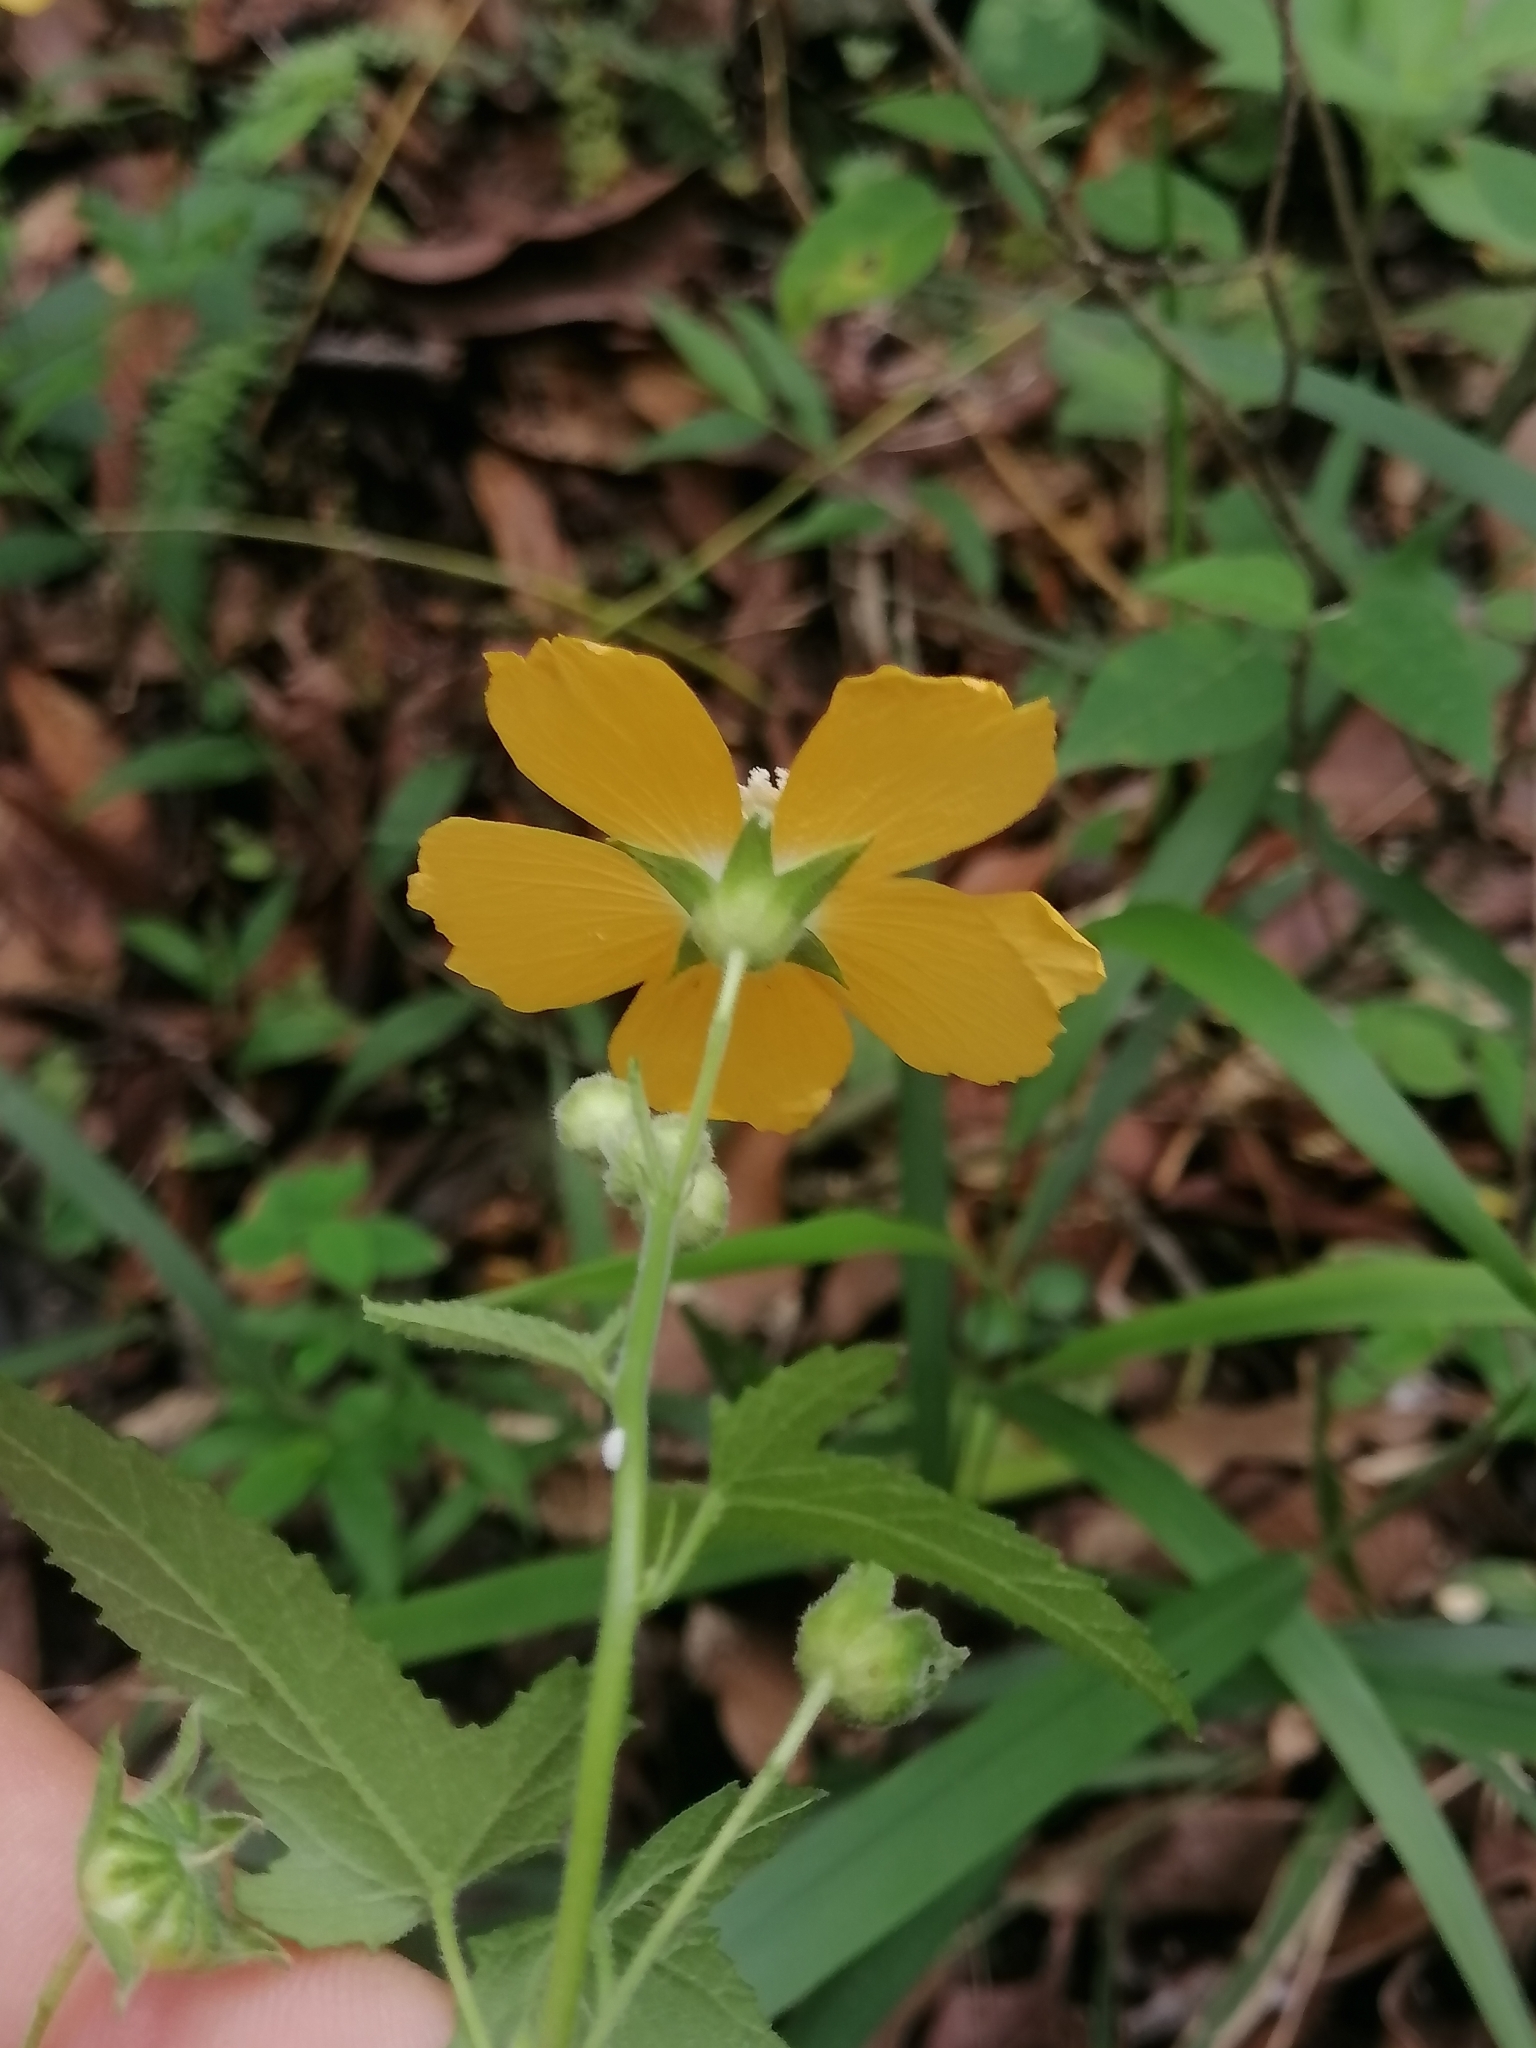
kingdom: Plantae
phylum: Tracheophyta
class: Magnoliopsida
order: Malvales
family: Malvaceae
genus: Anoda
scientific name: Anoda leonensis
